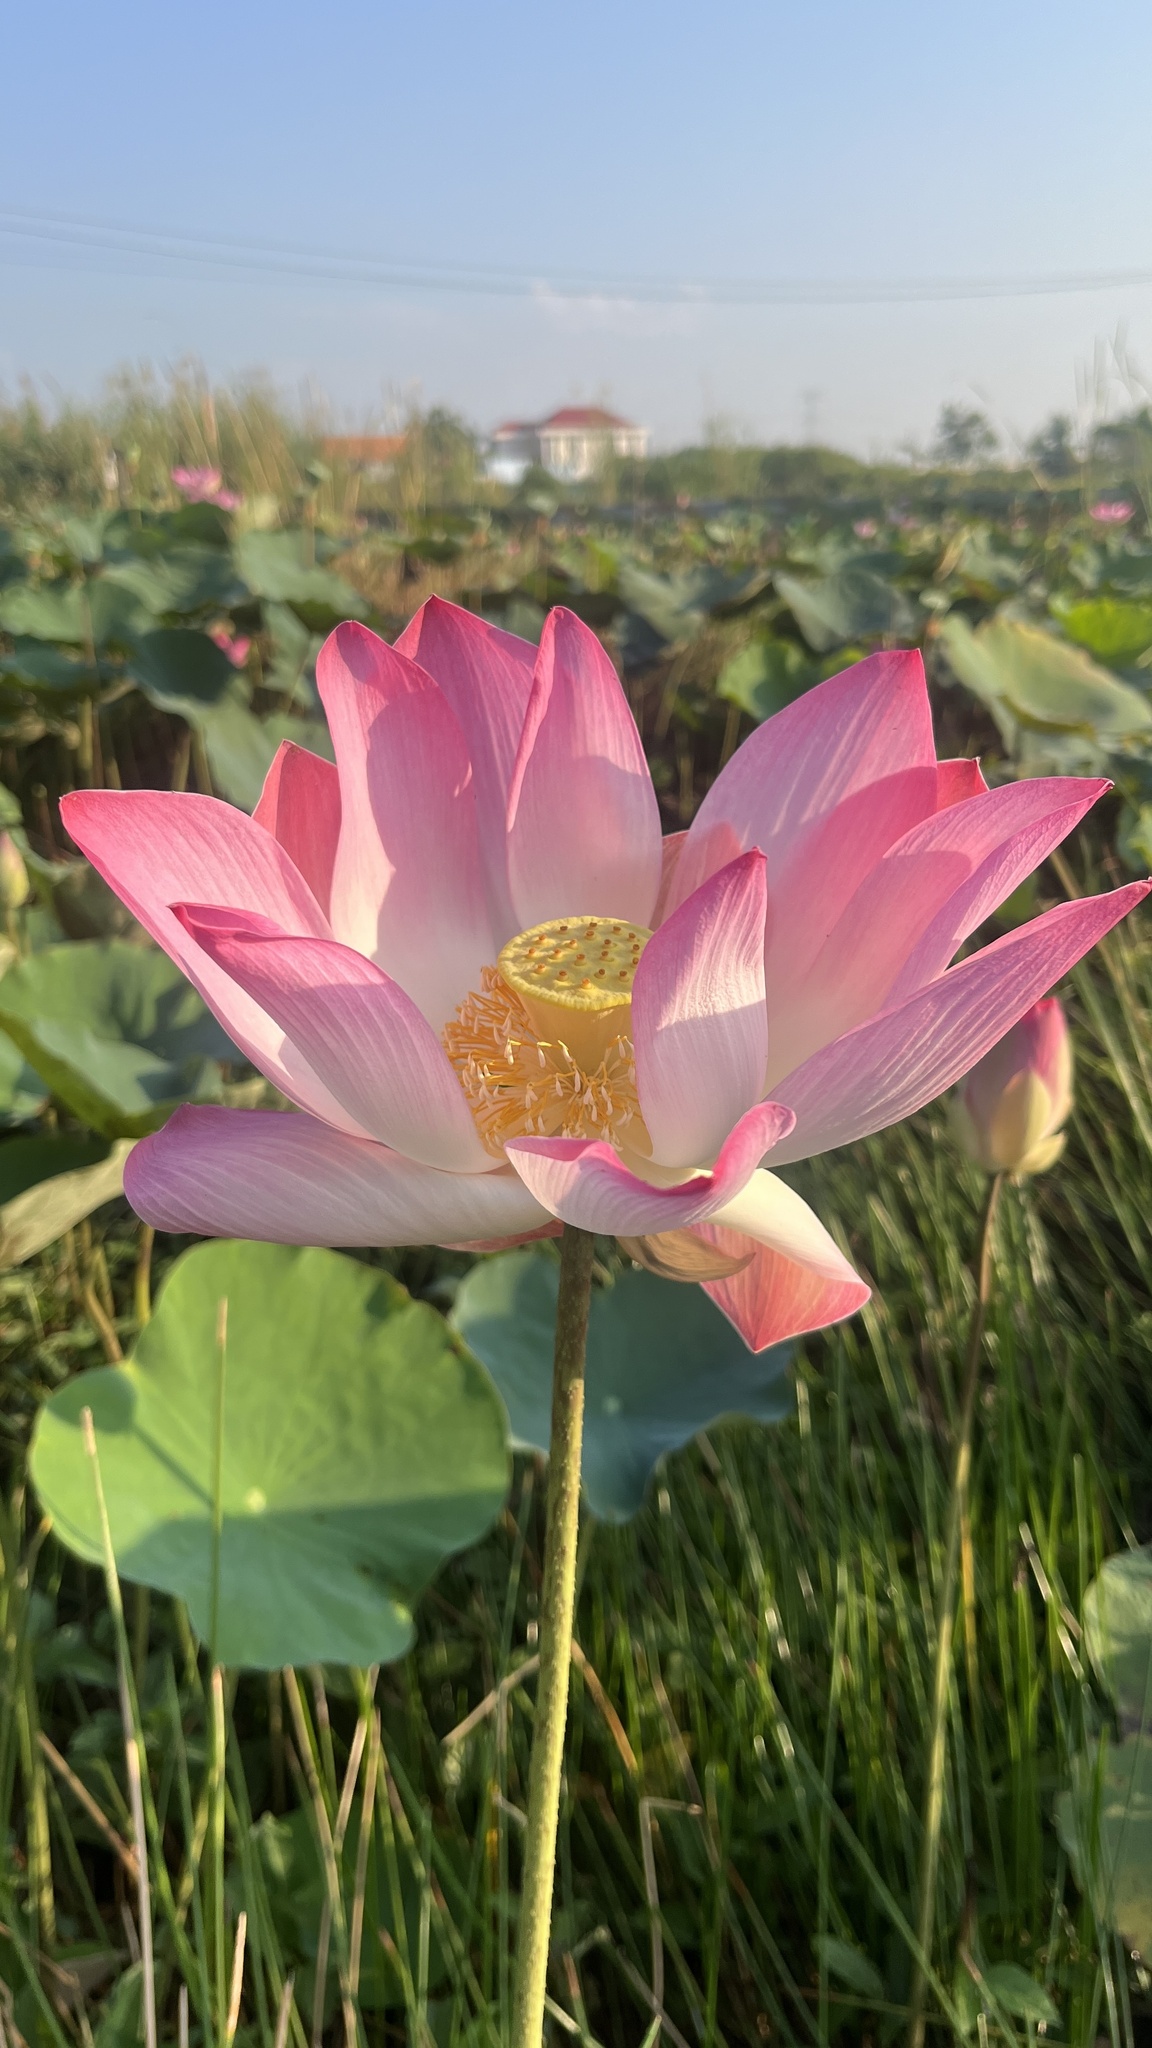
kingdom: Plantae
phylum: Tracheophyta
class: Magnoliopsida
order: Proteales
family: Nelumbonaceae
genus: Nelumbo
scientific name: Nelumbo nucifera
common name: Sacred lotus
